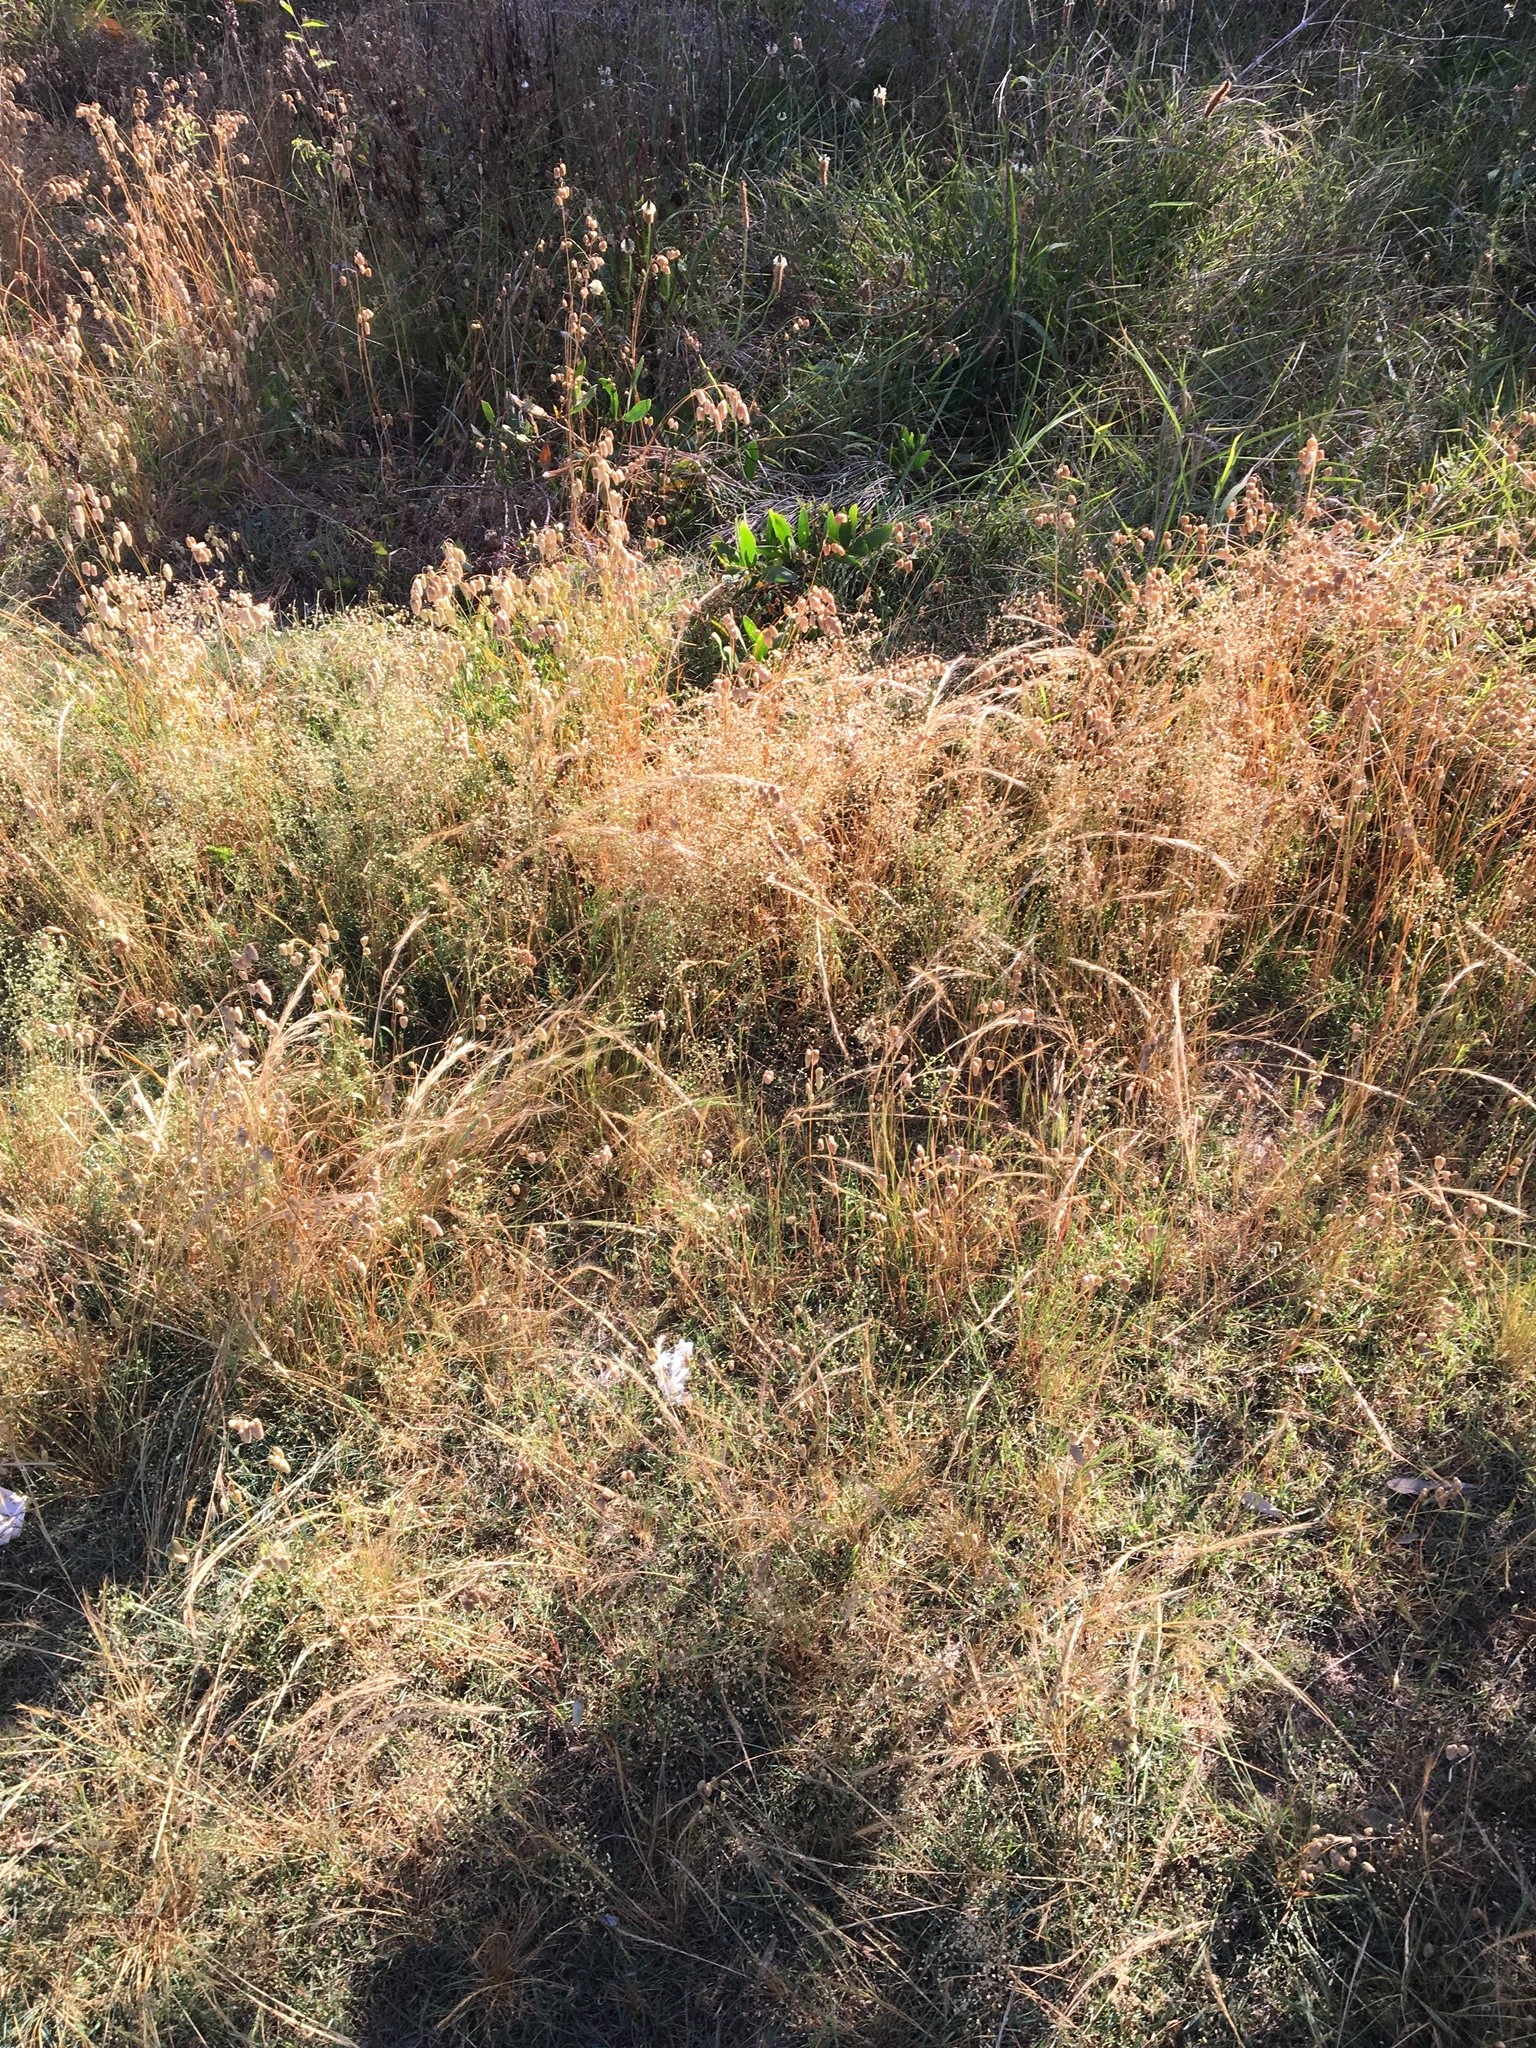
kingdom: Plantae
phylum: Tracheophyta
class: Liliopsida
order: Poales
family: Poaceae
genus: Briza
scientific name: Briza maxima
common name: Big quakinggrass
